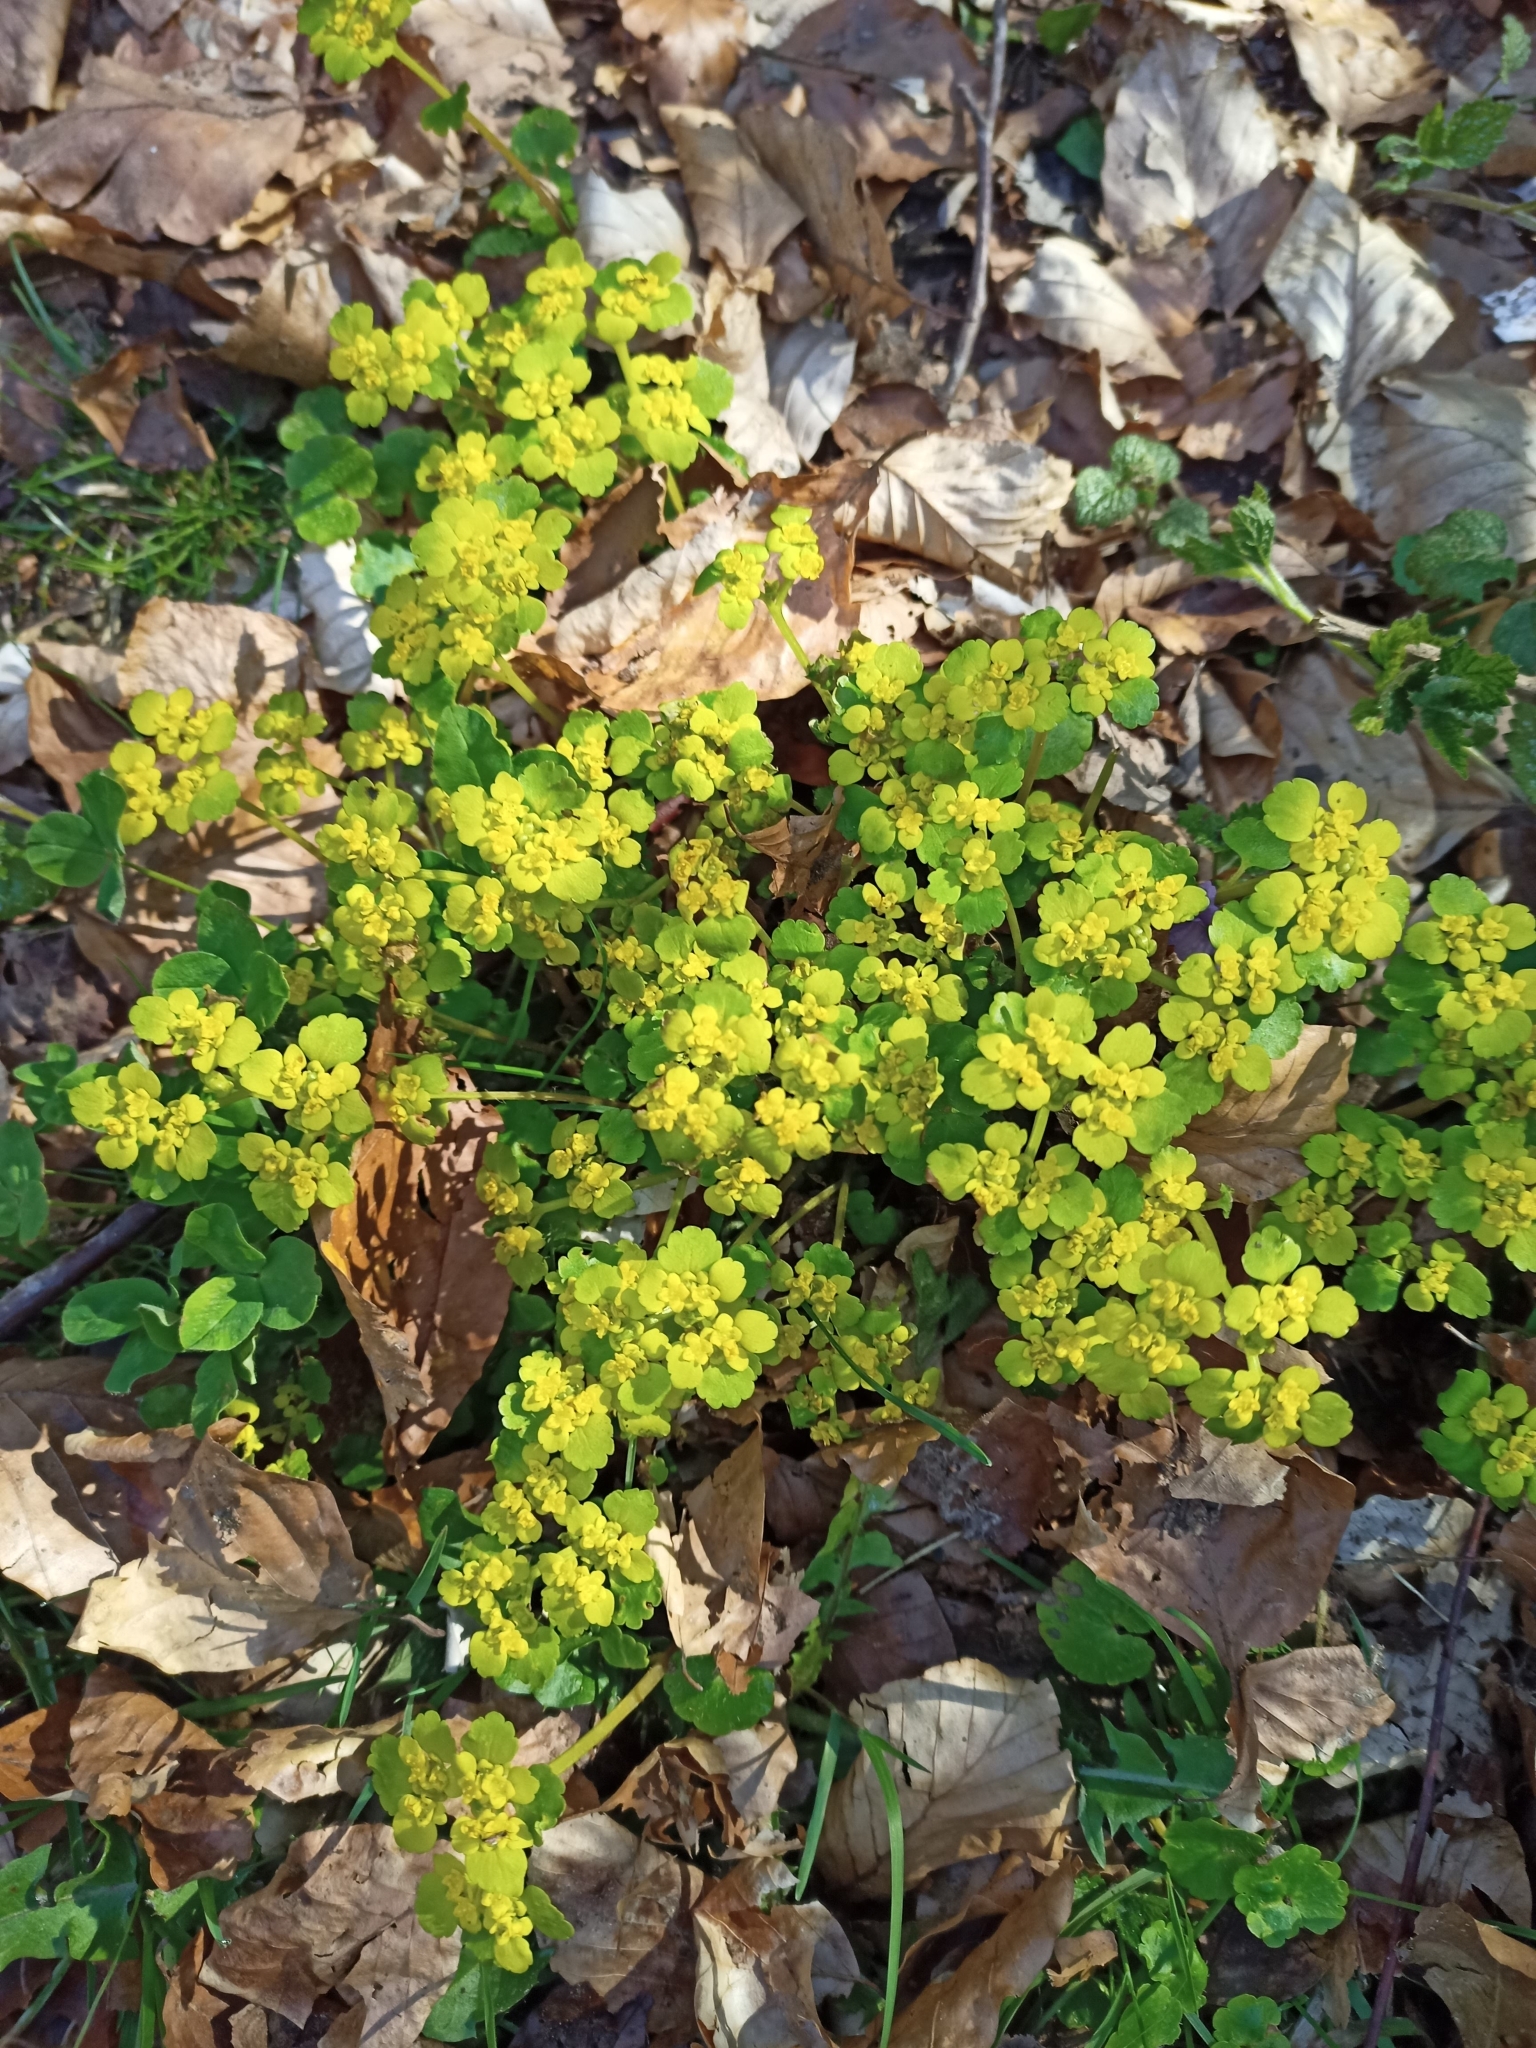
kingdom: Plantae
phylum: Tracheophyta
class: Magnoliopsida
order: Saxifragales
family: Saxifragaceae
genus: Chrysosplenium
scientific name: Chrysosplenium alternifolium
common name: Alternate-leaved golden-saxifrage
